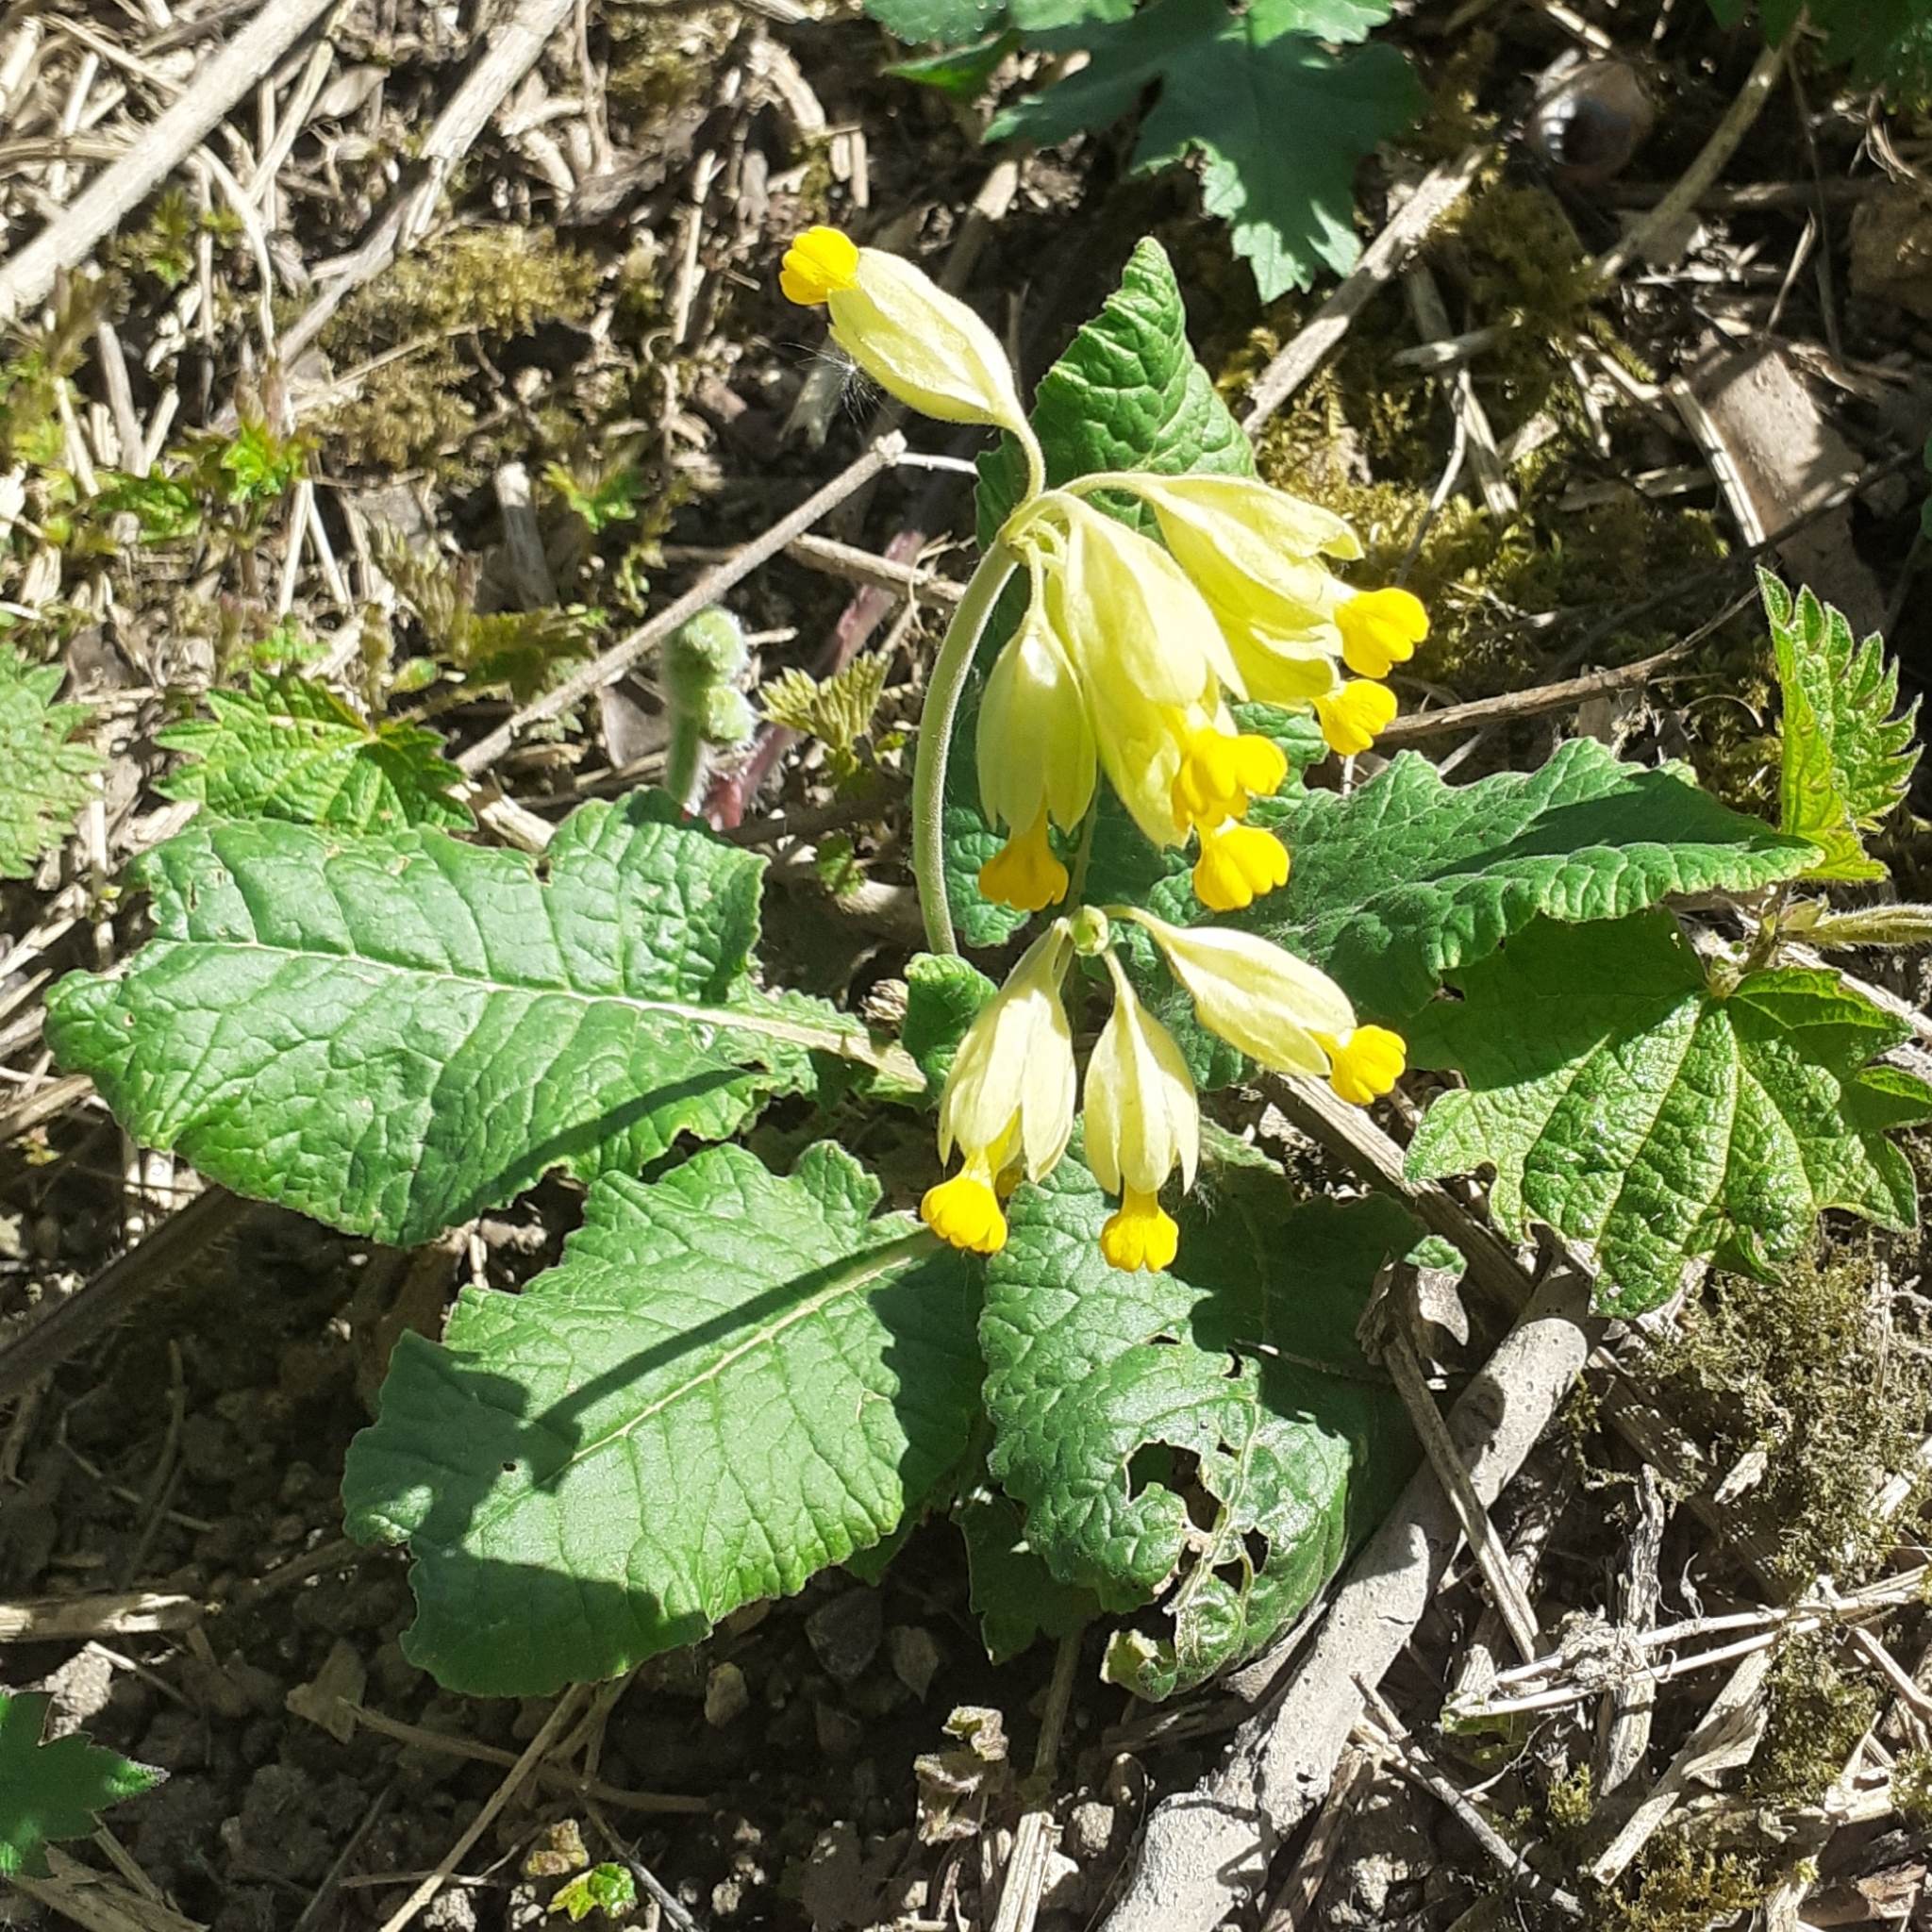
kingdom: Plantae
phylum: Tracheophyta
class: Magnoliopsida
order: Ericales
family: Primulaceae
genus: Primula
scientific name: Primula veris
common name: Cowslip
